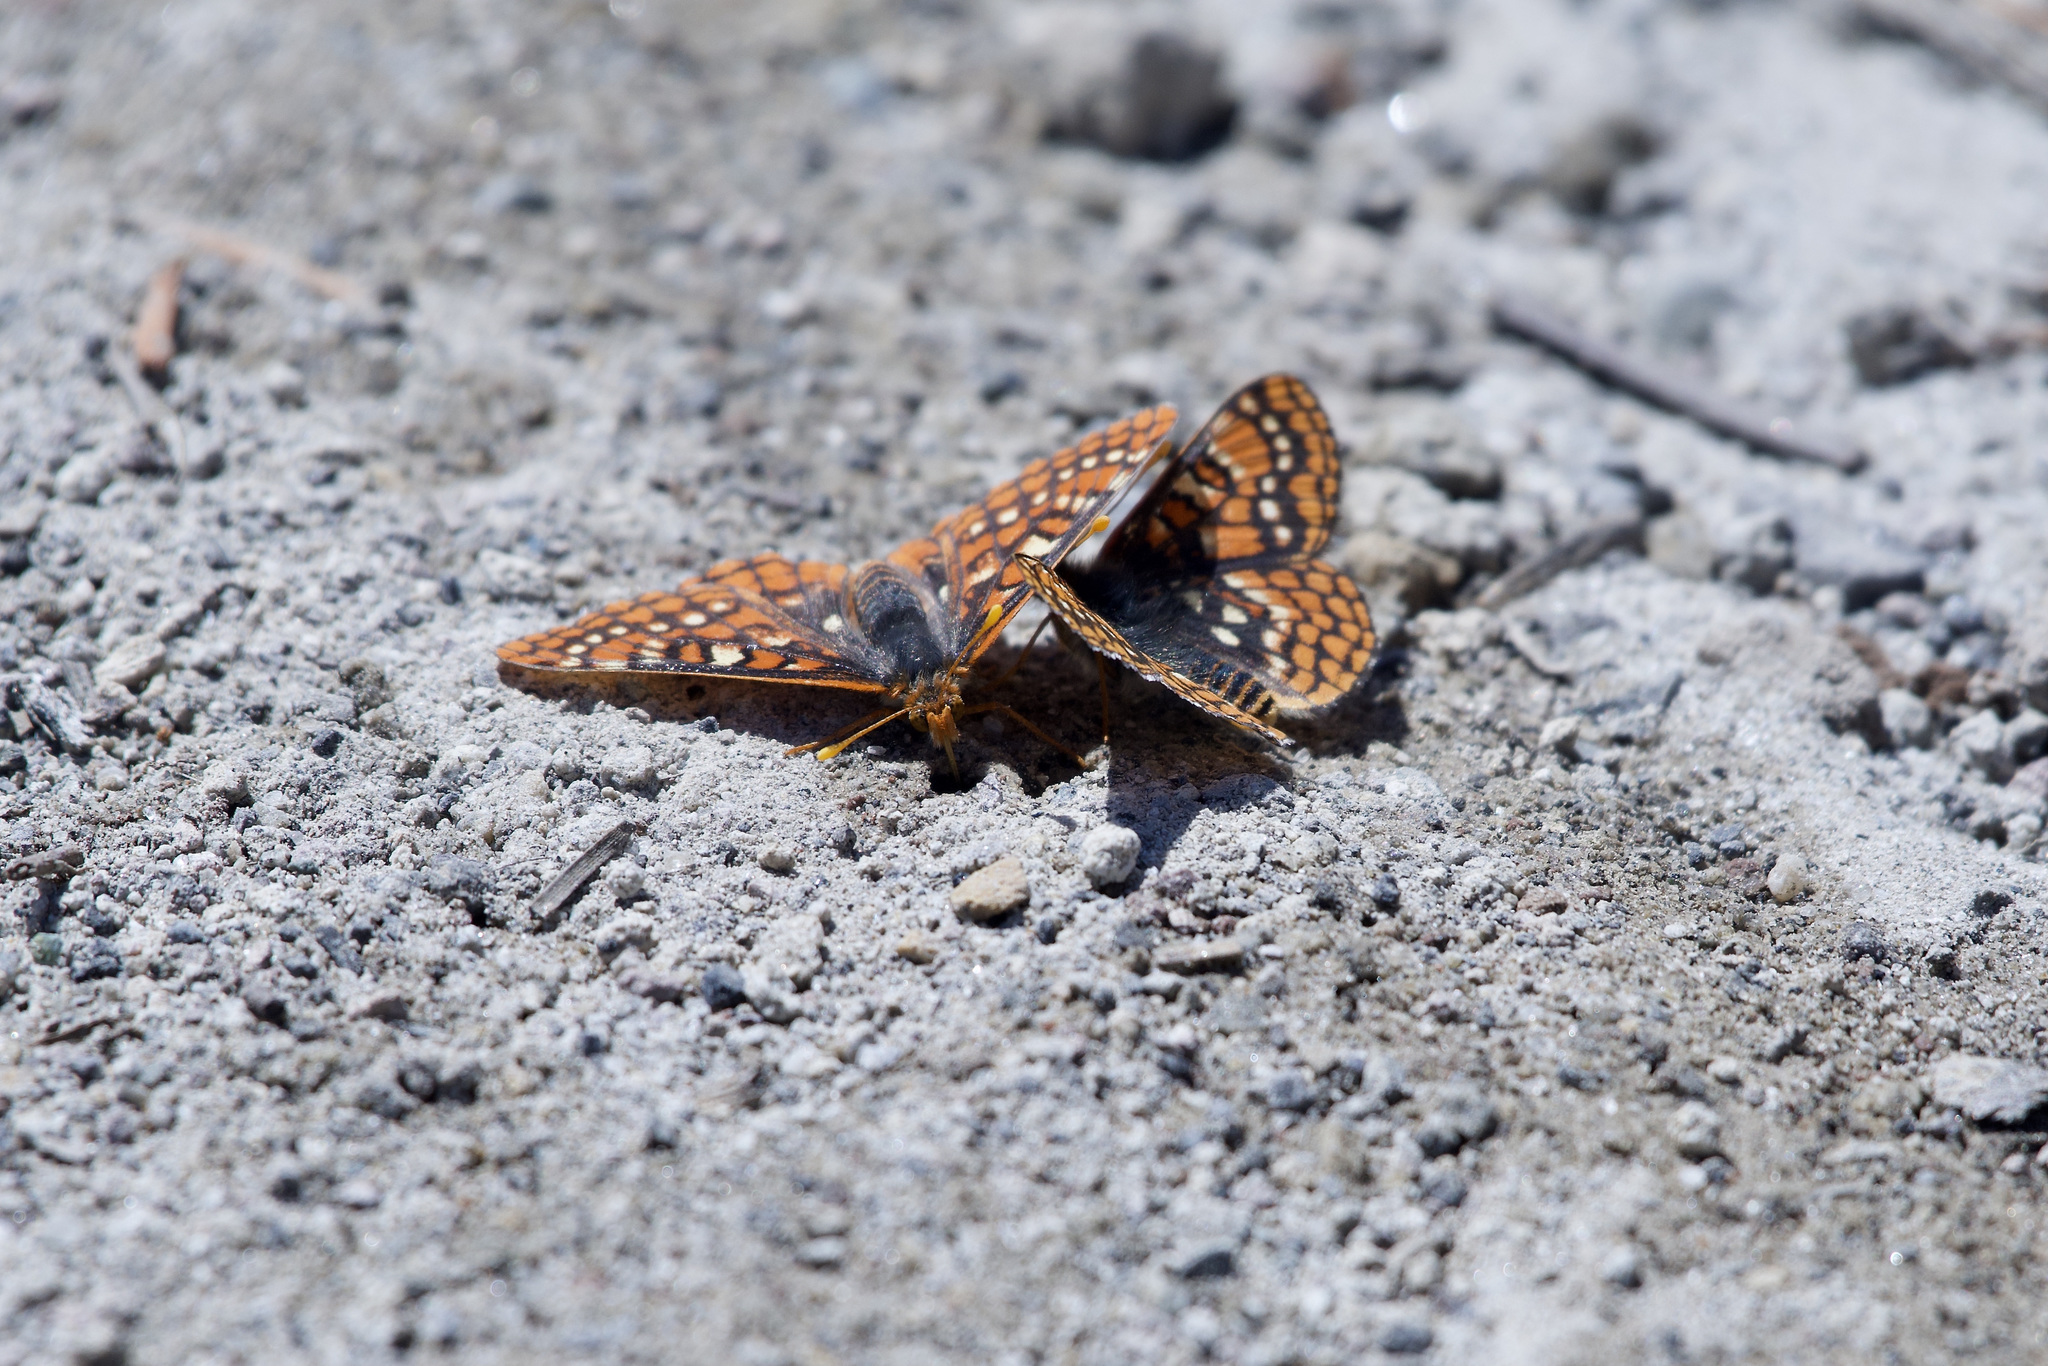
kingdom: Animalia
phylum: Arthropoda
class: Insecta
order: Lepidoptera
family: Nymphalidae
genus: Occidryas
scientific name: Occidryas editha
